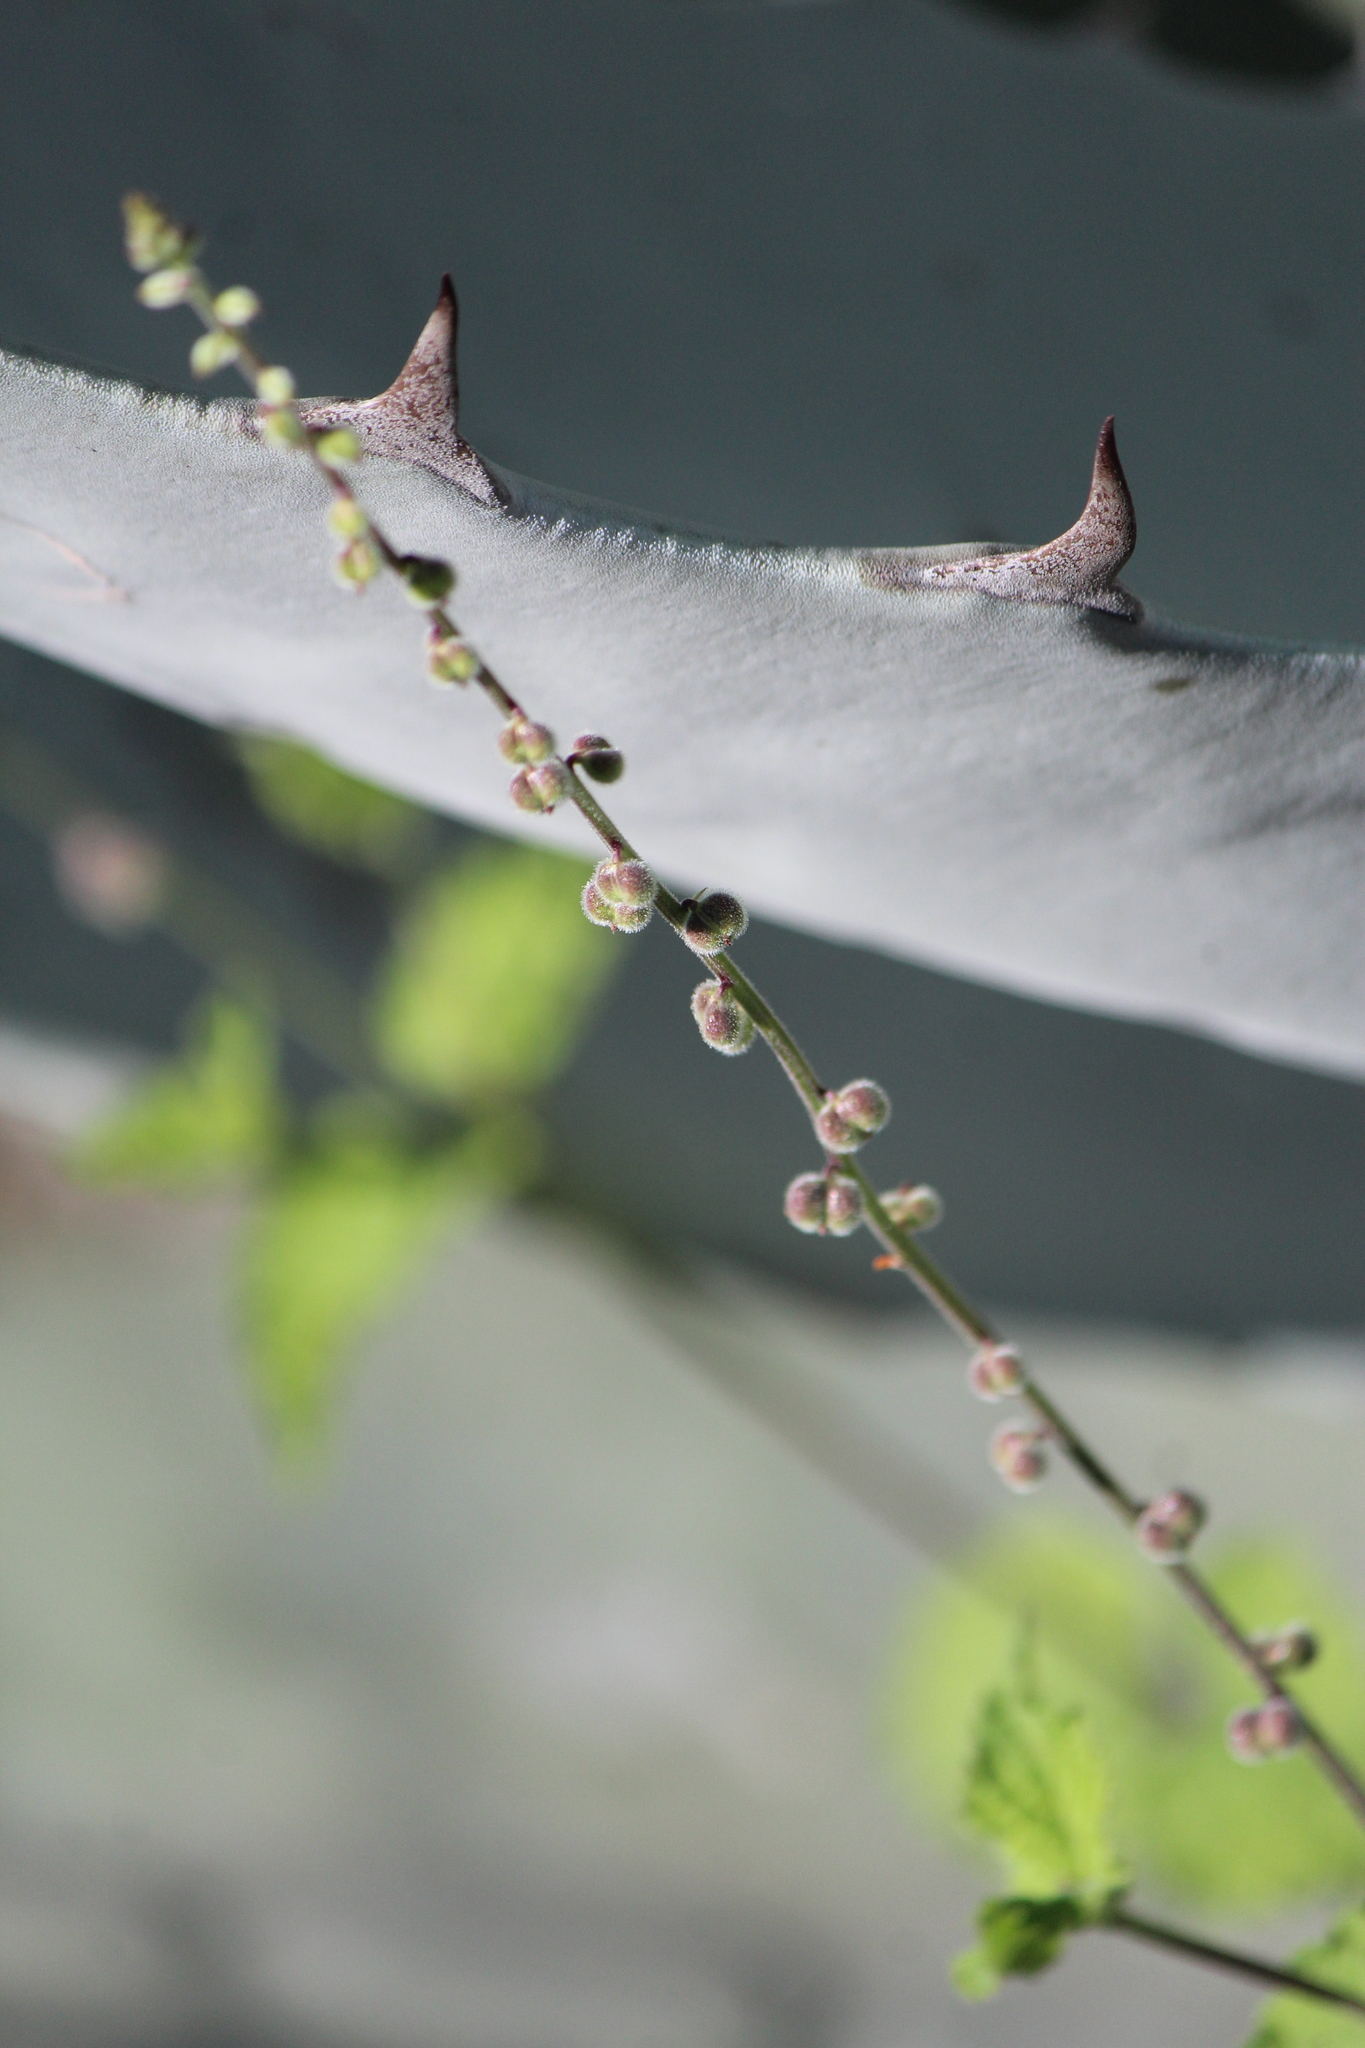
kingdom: Plantae
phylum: Tracheophyta
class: Magnoliopsida
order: Lamiales
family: Verbenaceae
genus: Priva
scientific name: Priva mexicana
